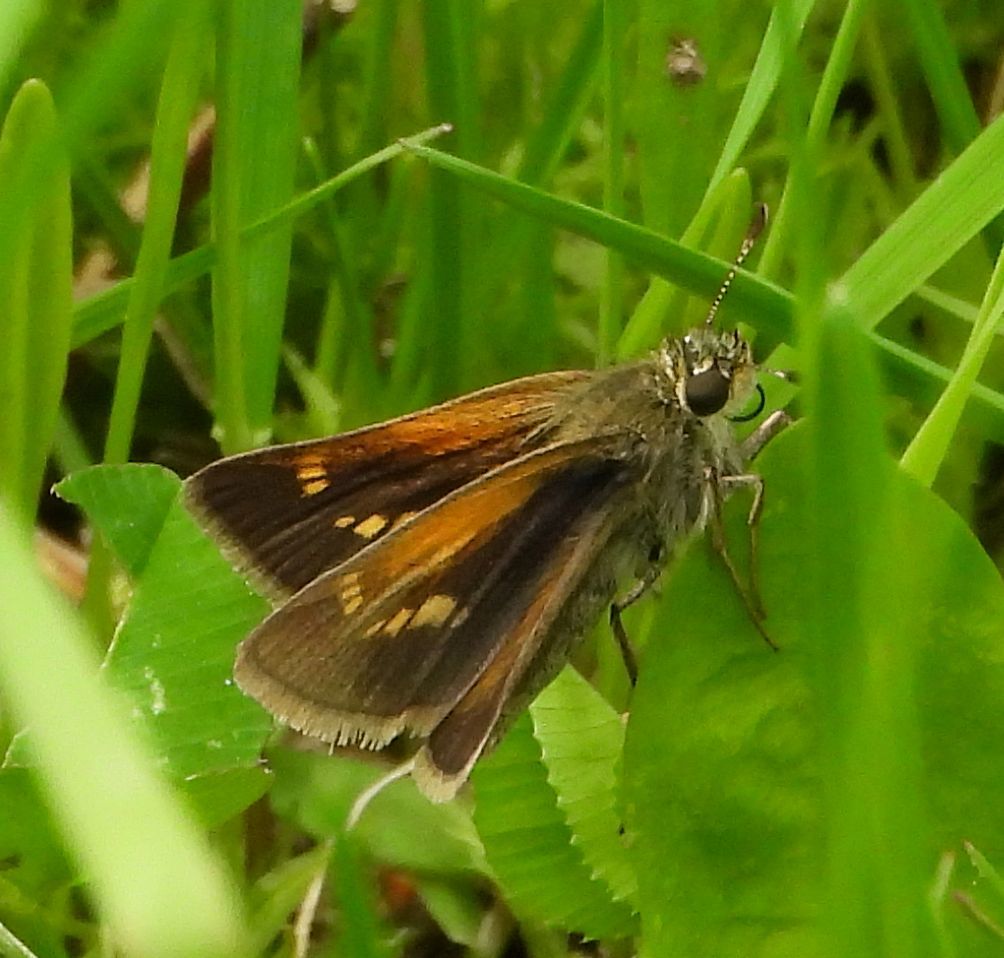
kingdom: Animalia
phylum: Arthropoda
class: Insecta
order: Lepidoptera
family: Hesperiidae
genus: Polites
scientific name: Polites themistocles
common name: Tawny-edged skipper
